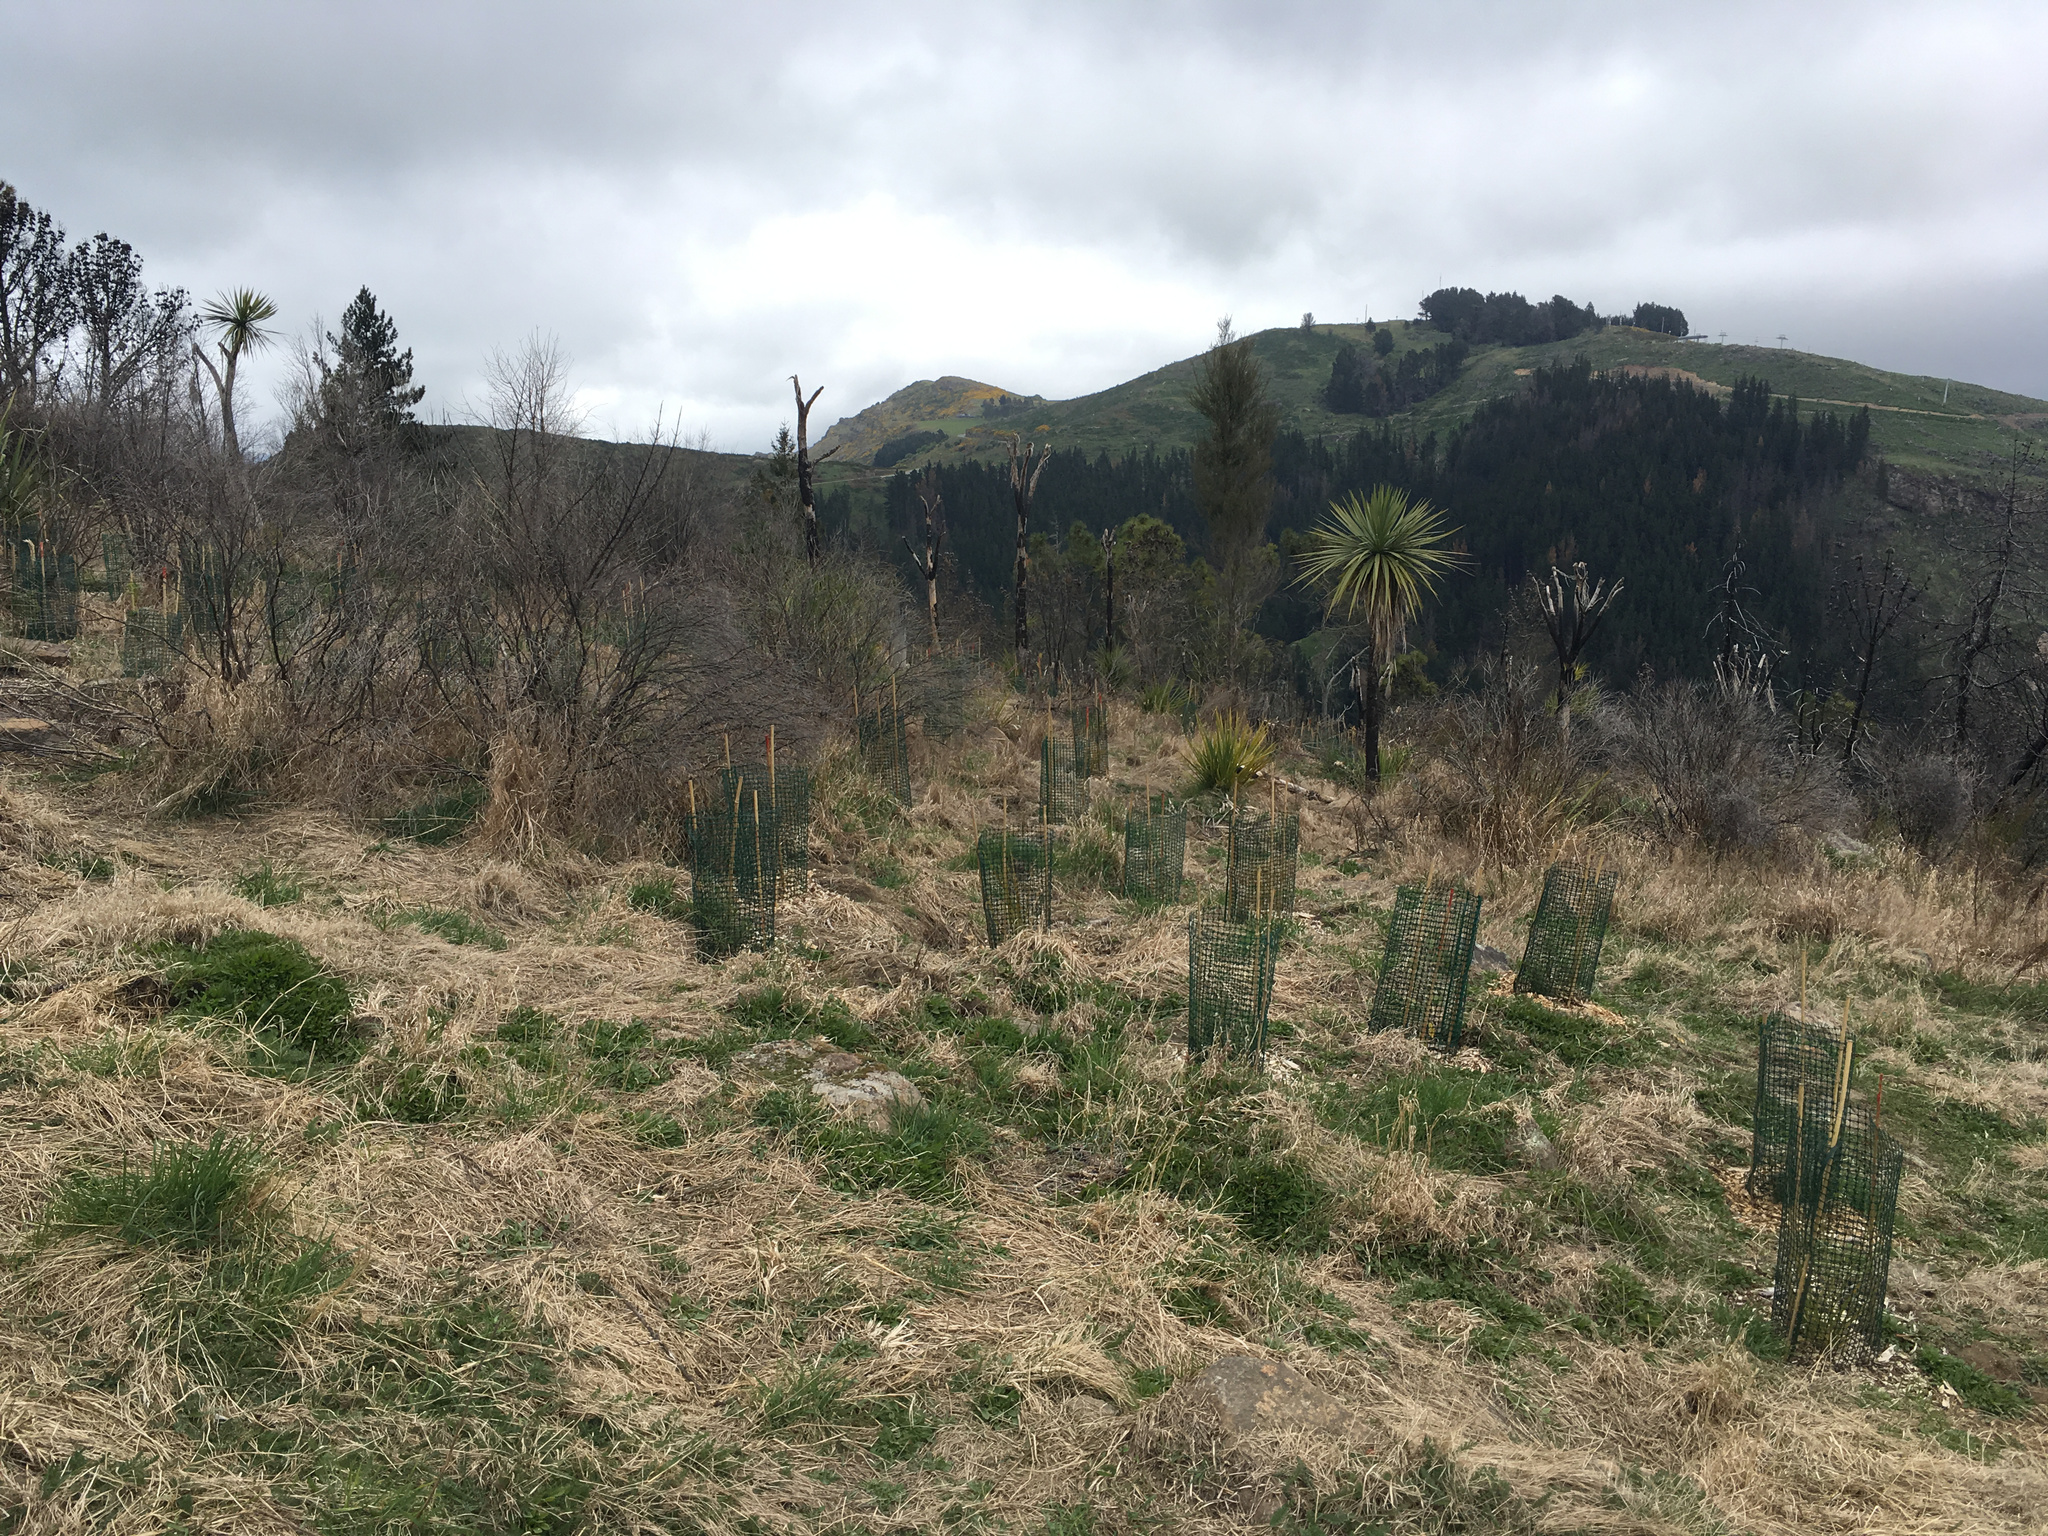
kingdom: Plantae
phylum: Tracheophyta
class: Liliopsida
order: Asparagales
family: Asparagaceae
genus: Cordyline
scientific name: Cordyline australis
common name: Cabbage-palm
